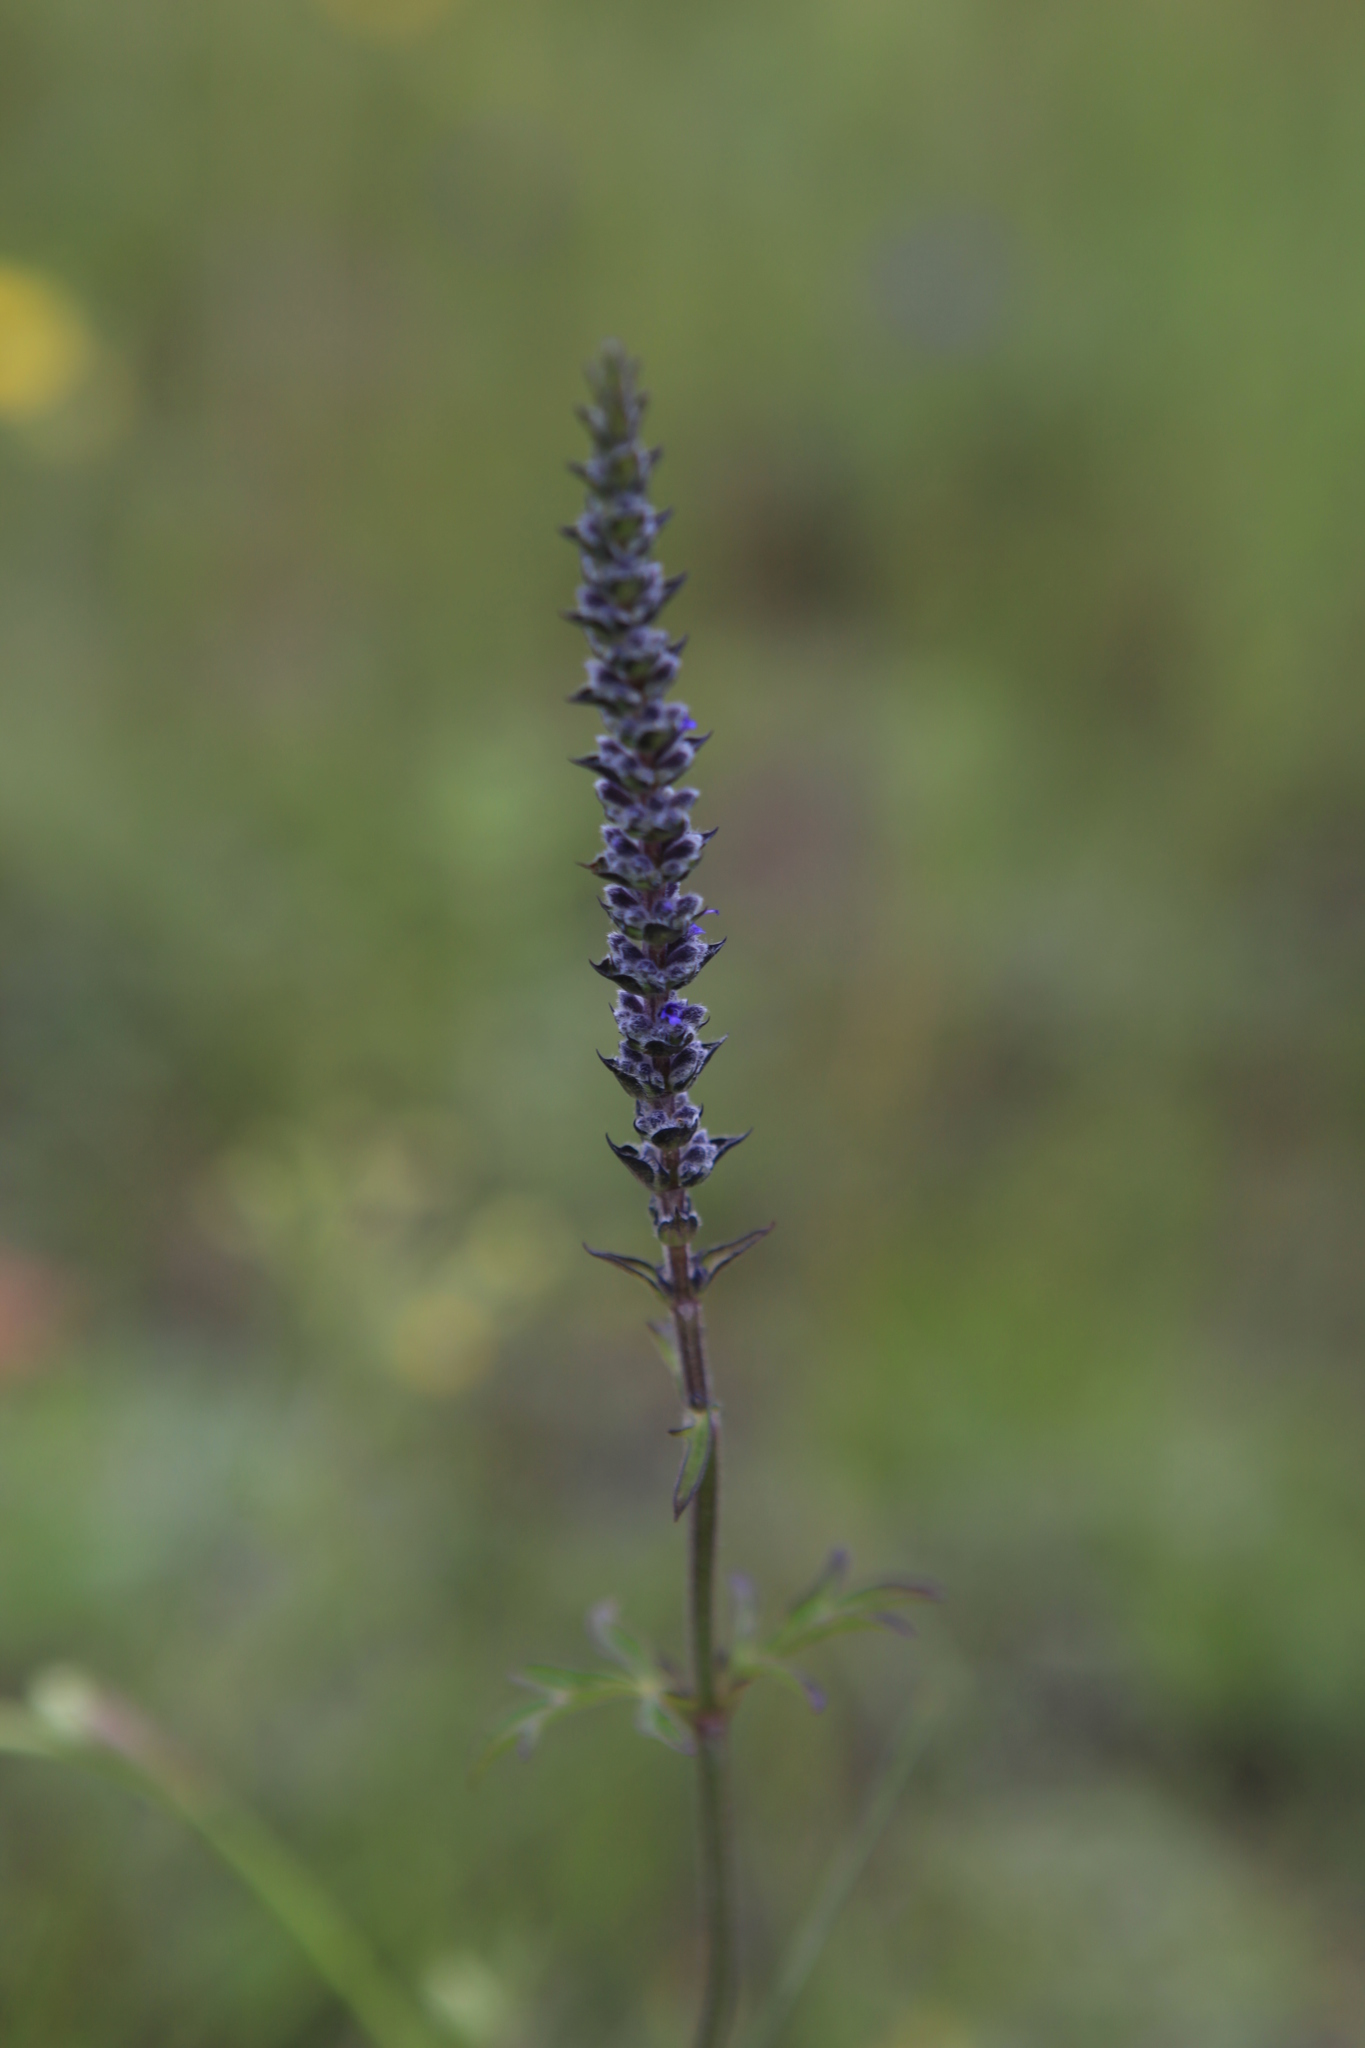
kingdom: Plantae
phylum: Tracheophyta
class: Magnoliopsida
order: Lamiales
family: Lamiaceae
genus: Nepeta
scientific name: Nepeta multifida
